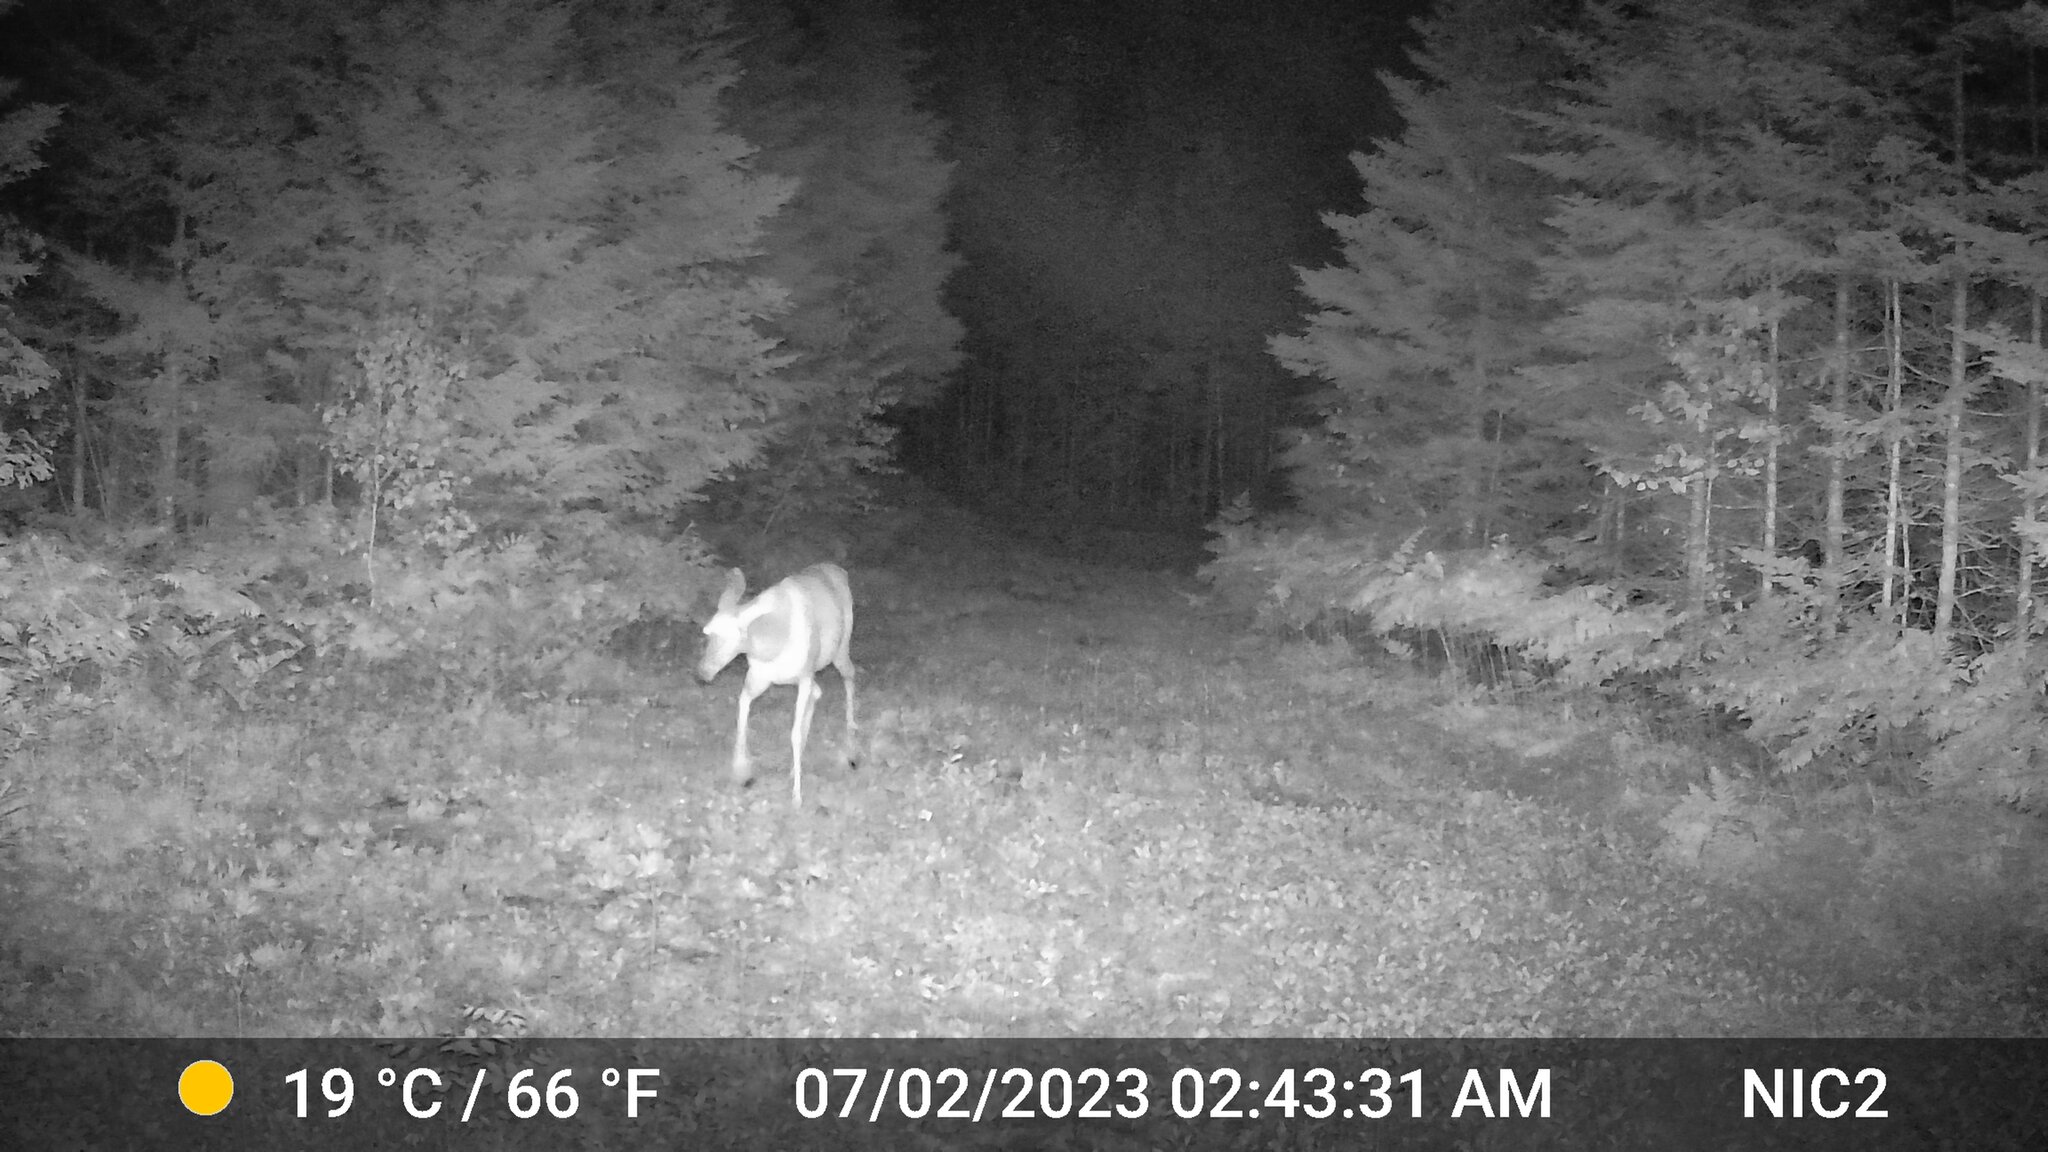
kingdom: Animalia
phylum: Chordata
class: Mammalia
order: Artiodactyla
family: Cervidae
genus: Odocoileus
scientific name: Odocoileus virginianus
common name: White-tailed deer
